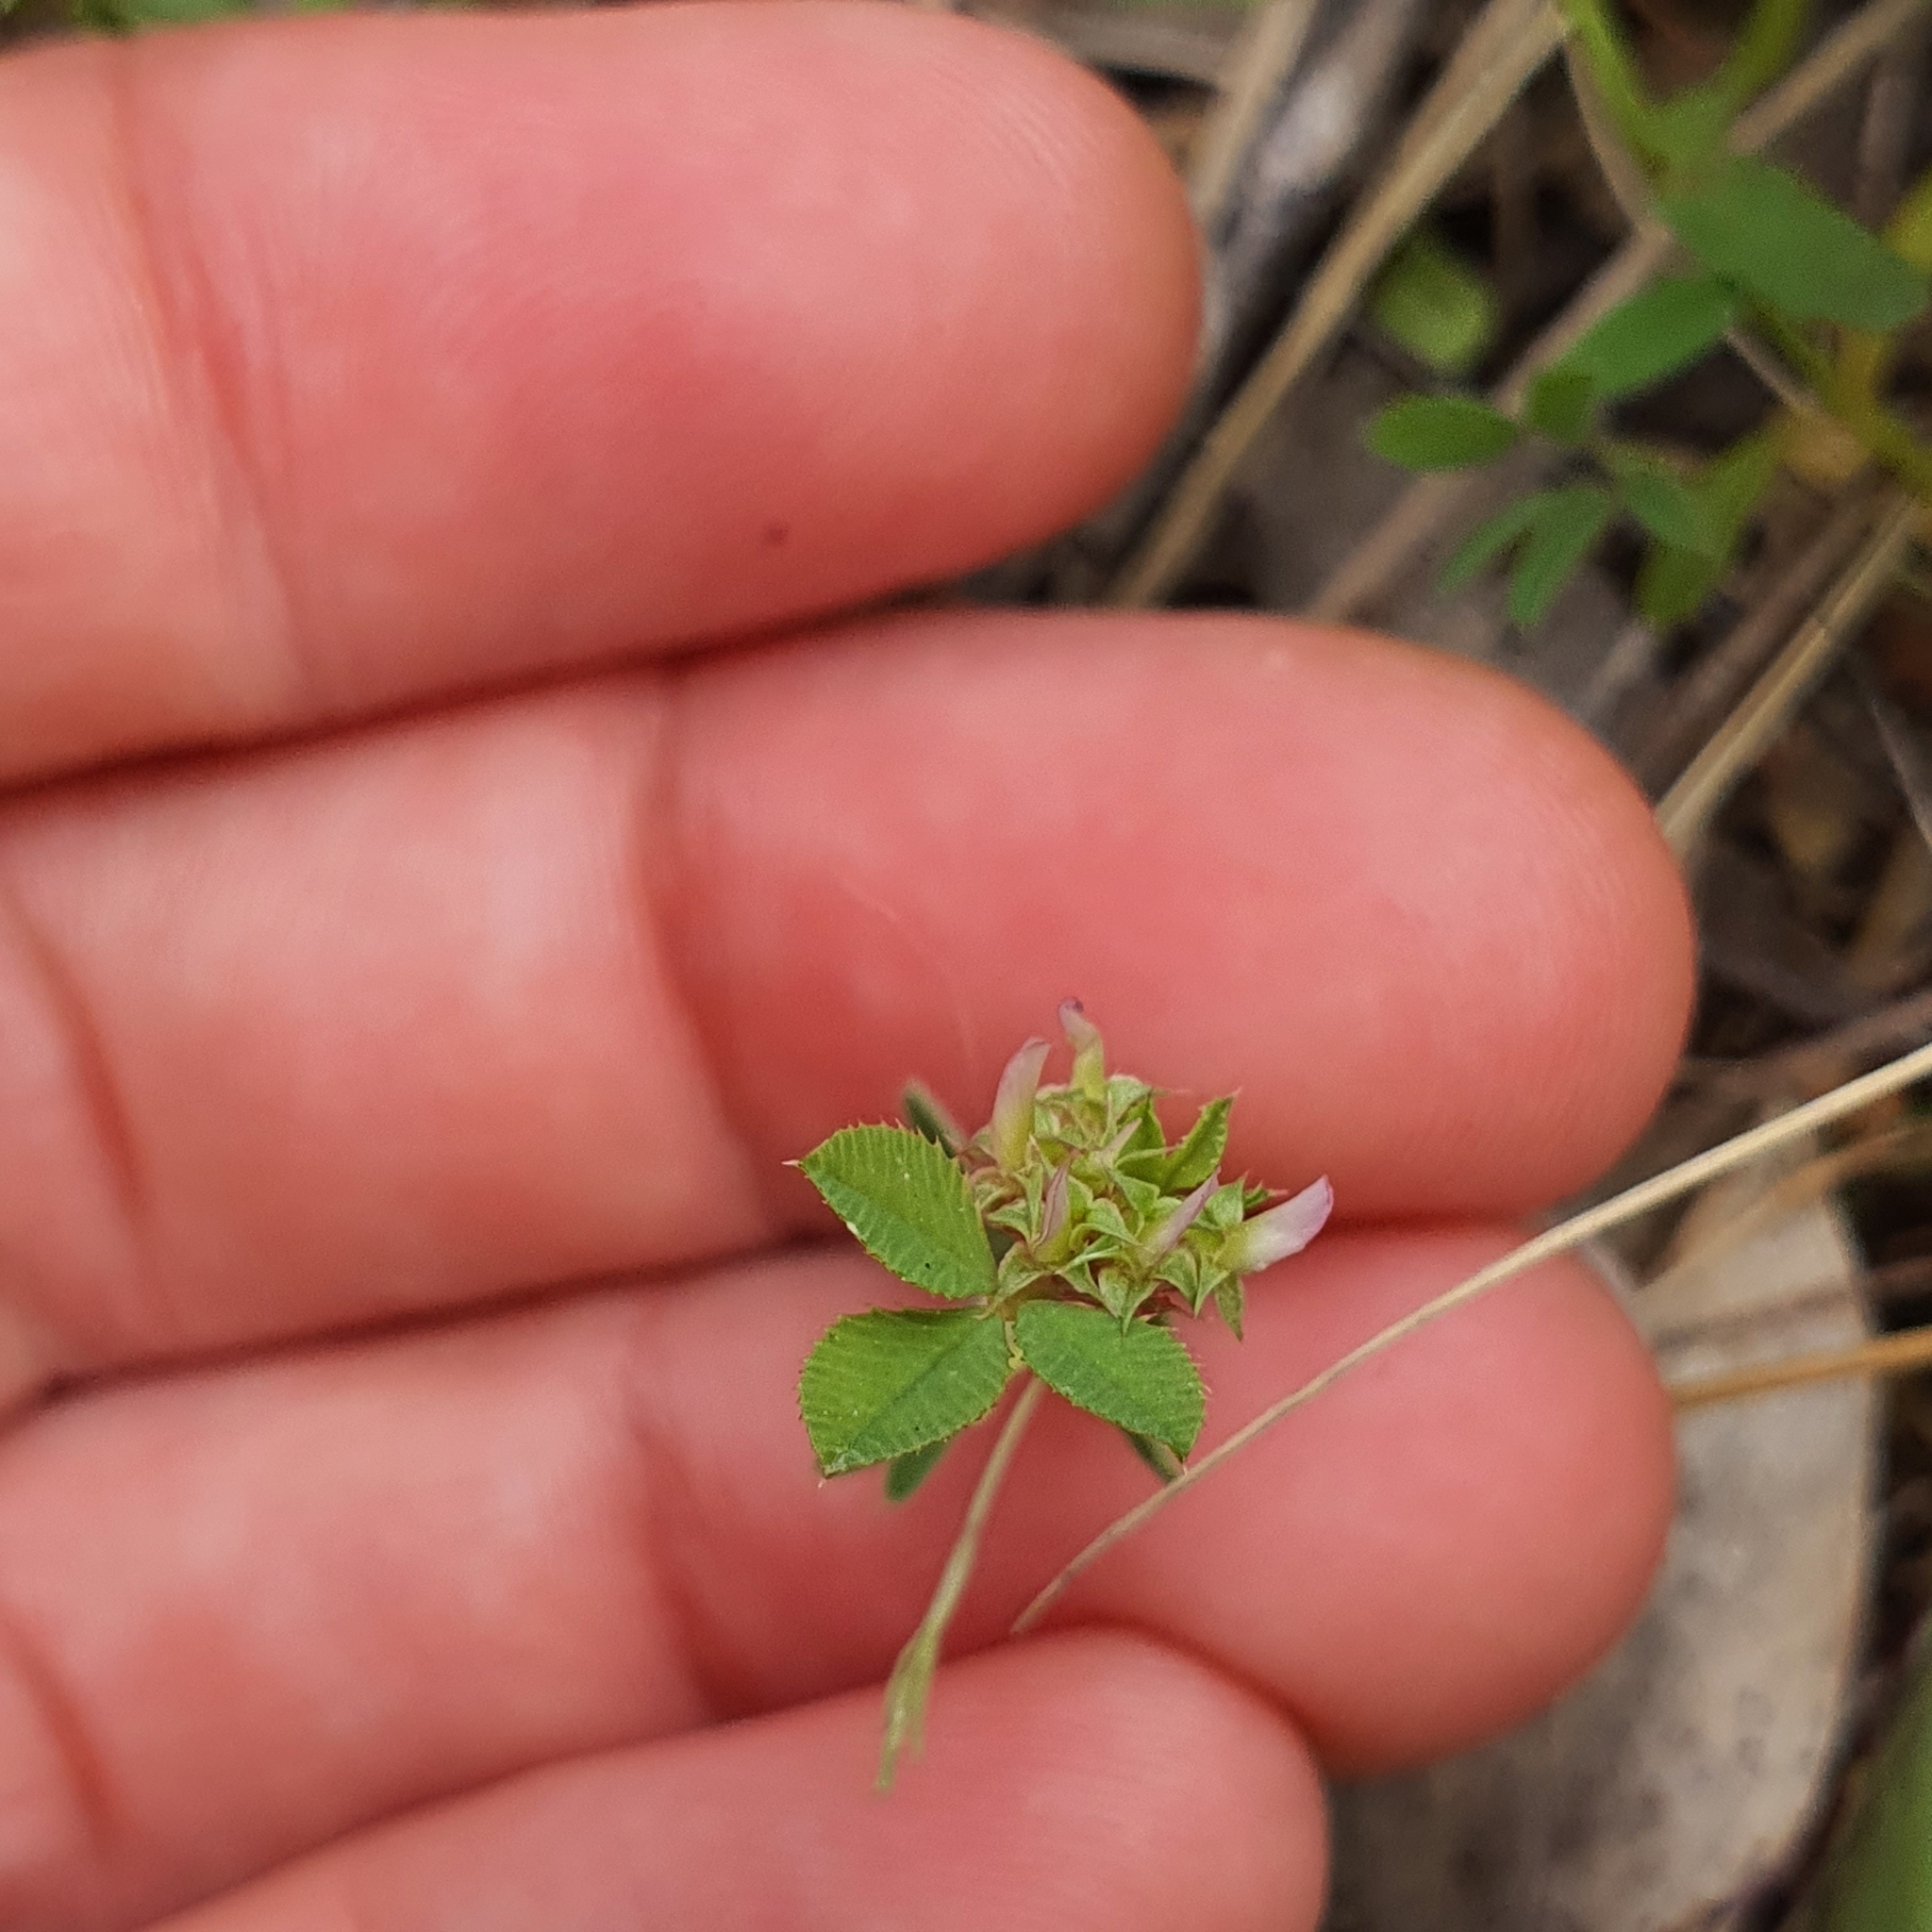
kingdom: Plantae
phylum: Tracheophyta
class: Magnoliopsida
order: Fabales
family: Fabaceae
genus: Trifolium
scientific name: Trifolium glomeratum
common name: Clustered clover
